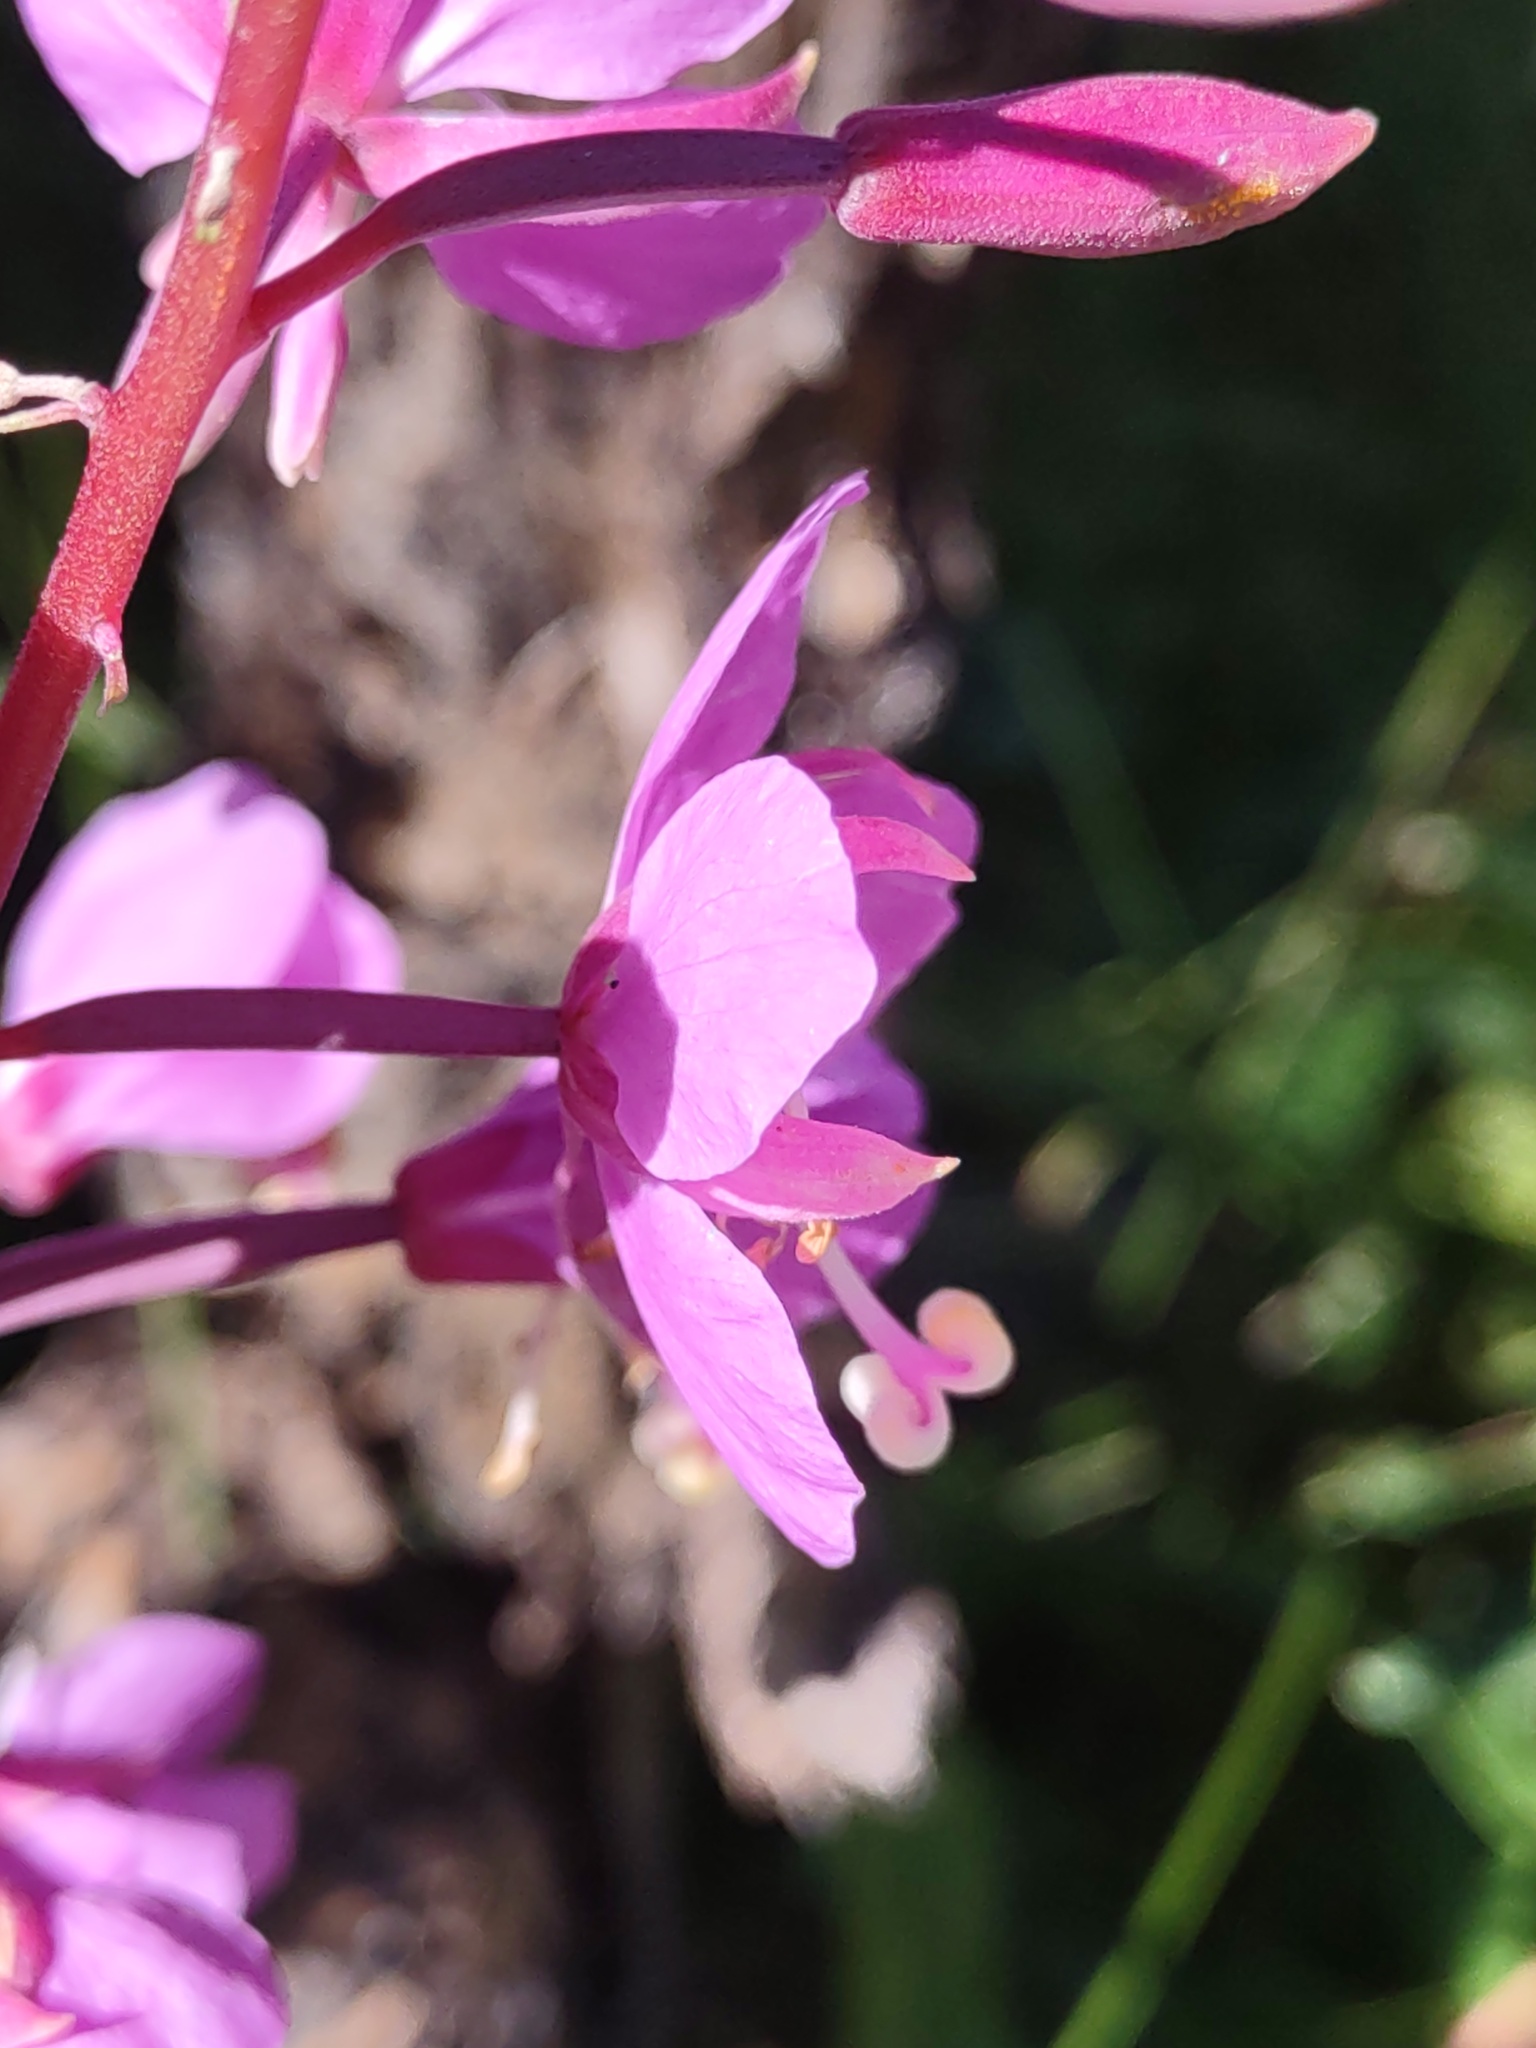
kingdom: Plantae
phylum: Tracheophyta
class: Magnoliopsida
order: Myrtales
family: Onagraceae
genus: Chamaenerion
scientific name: Chamaenerion angustifolium
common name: Fireweed
